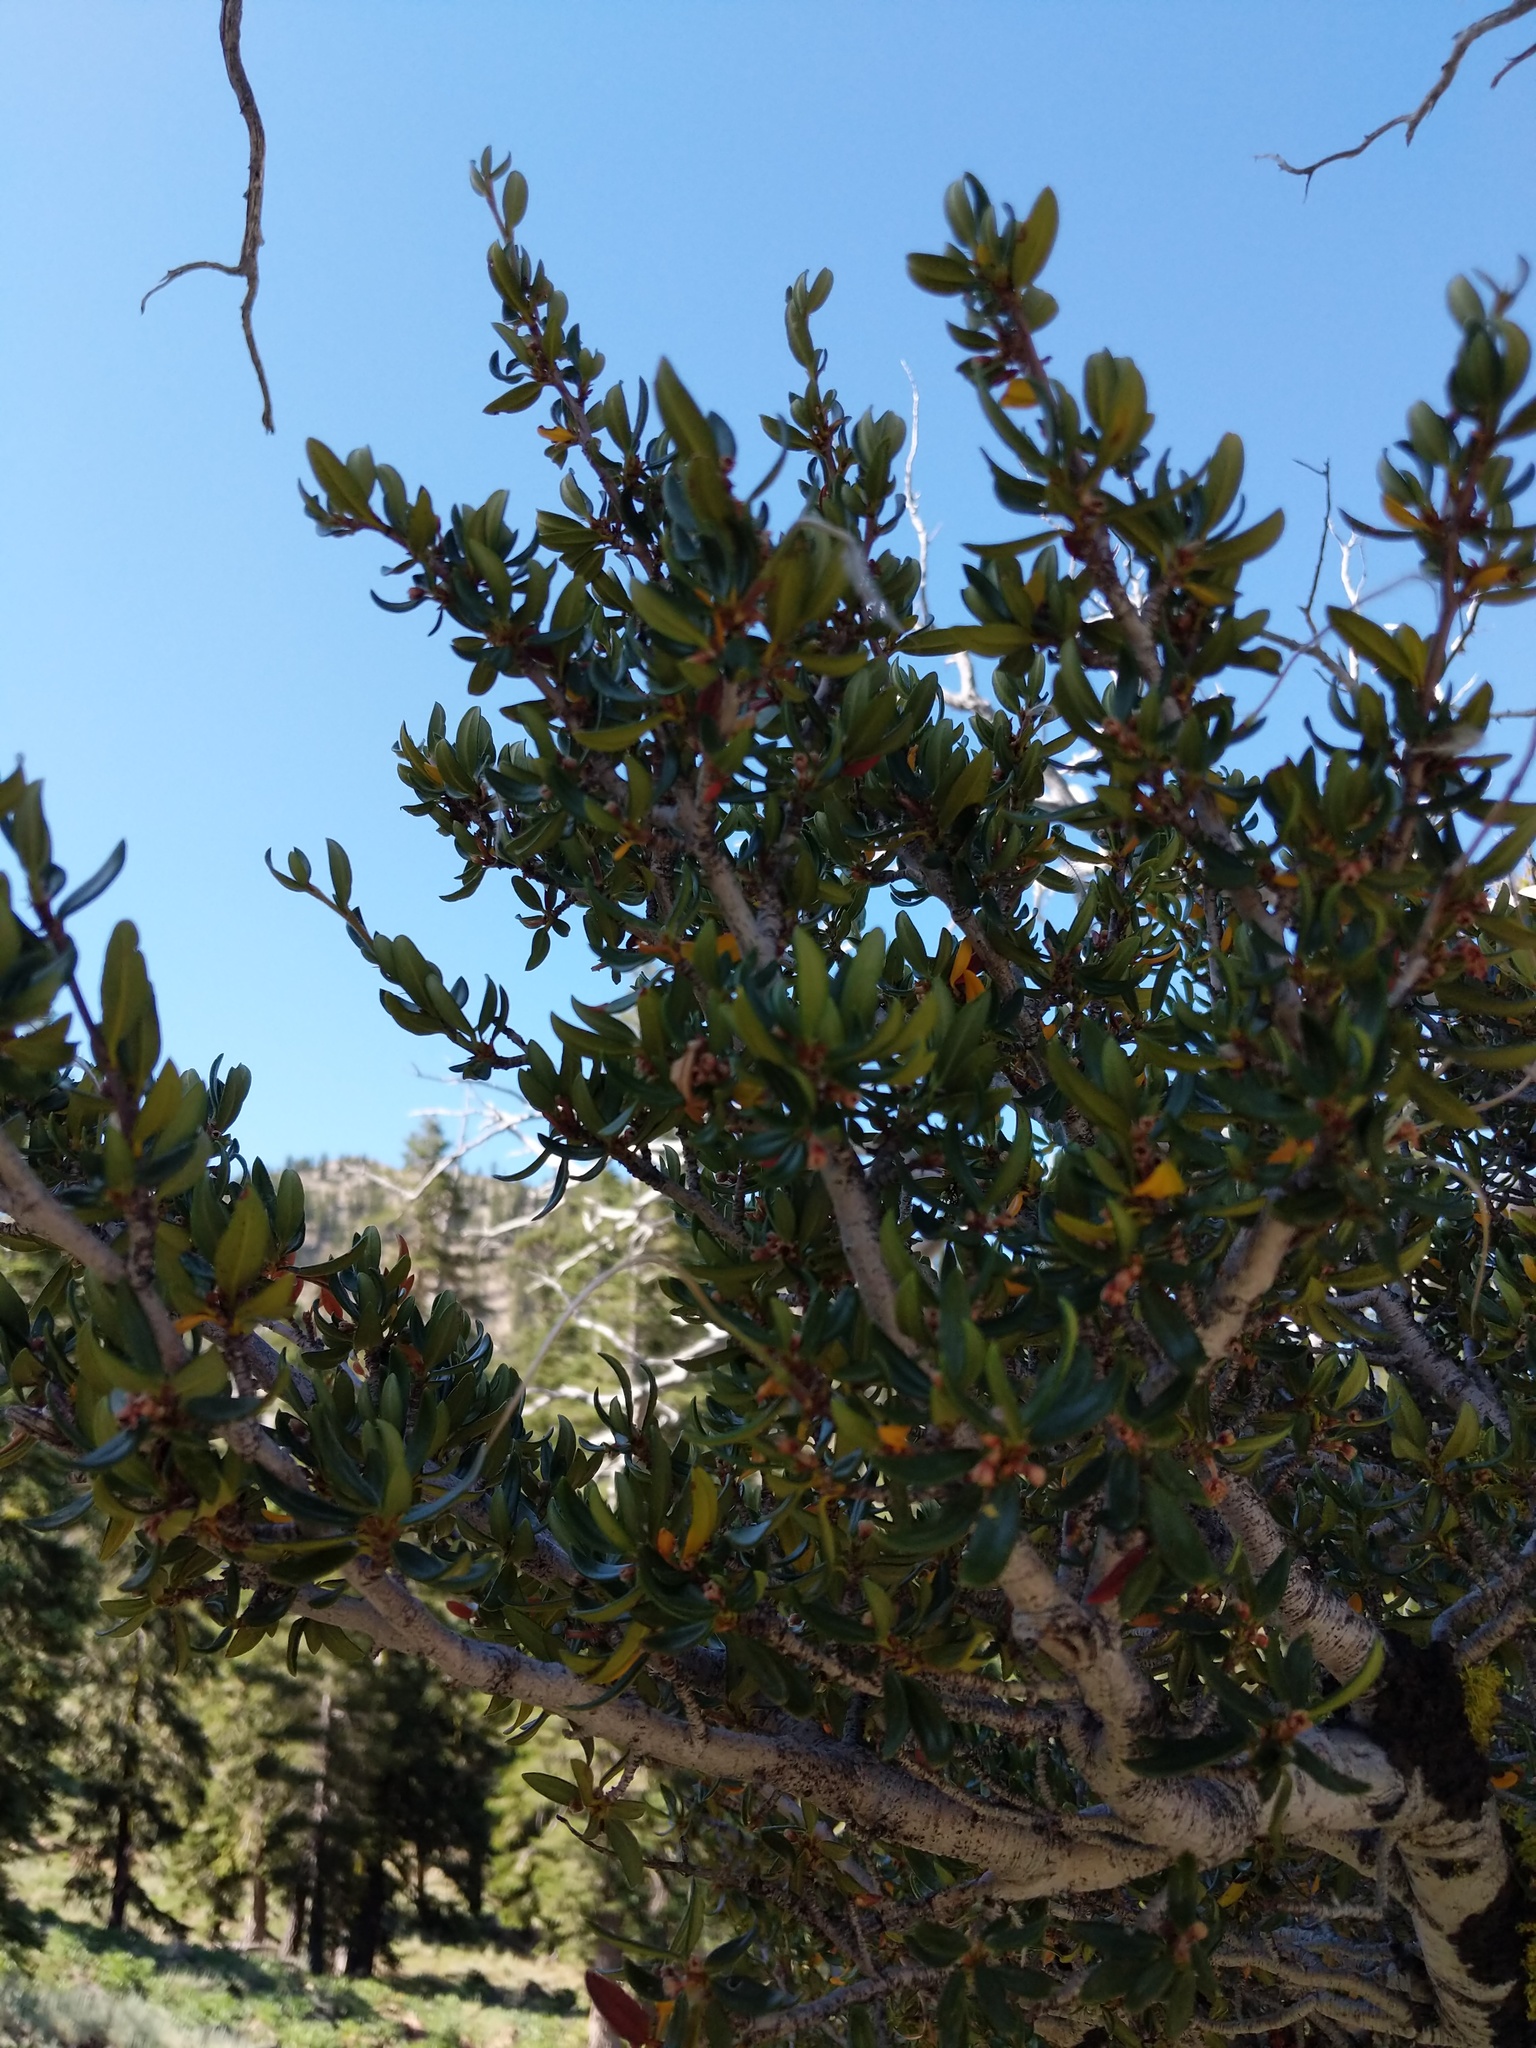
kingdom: Plantae
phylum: Tracheophyta
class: Magnoliopsida
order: Rosales
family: Rosaceae
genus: Cercocarpus
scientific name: Cercocarpus ledifolius
